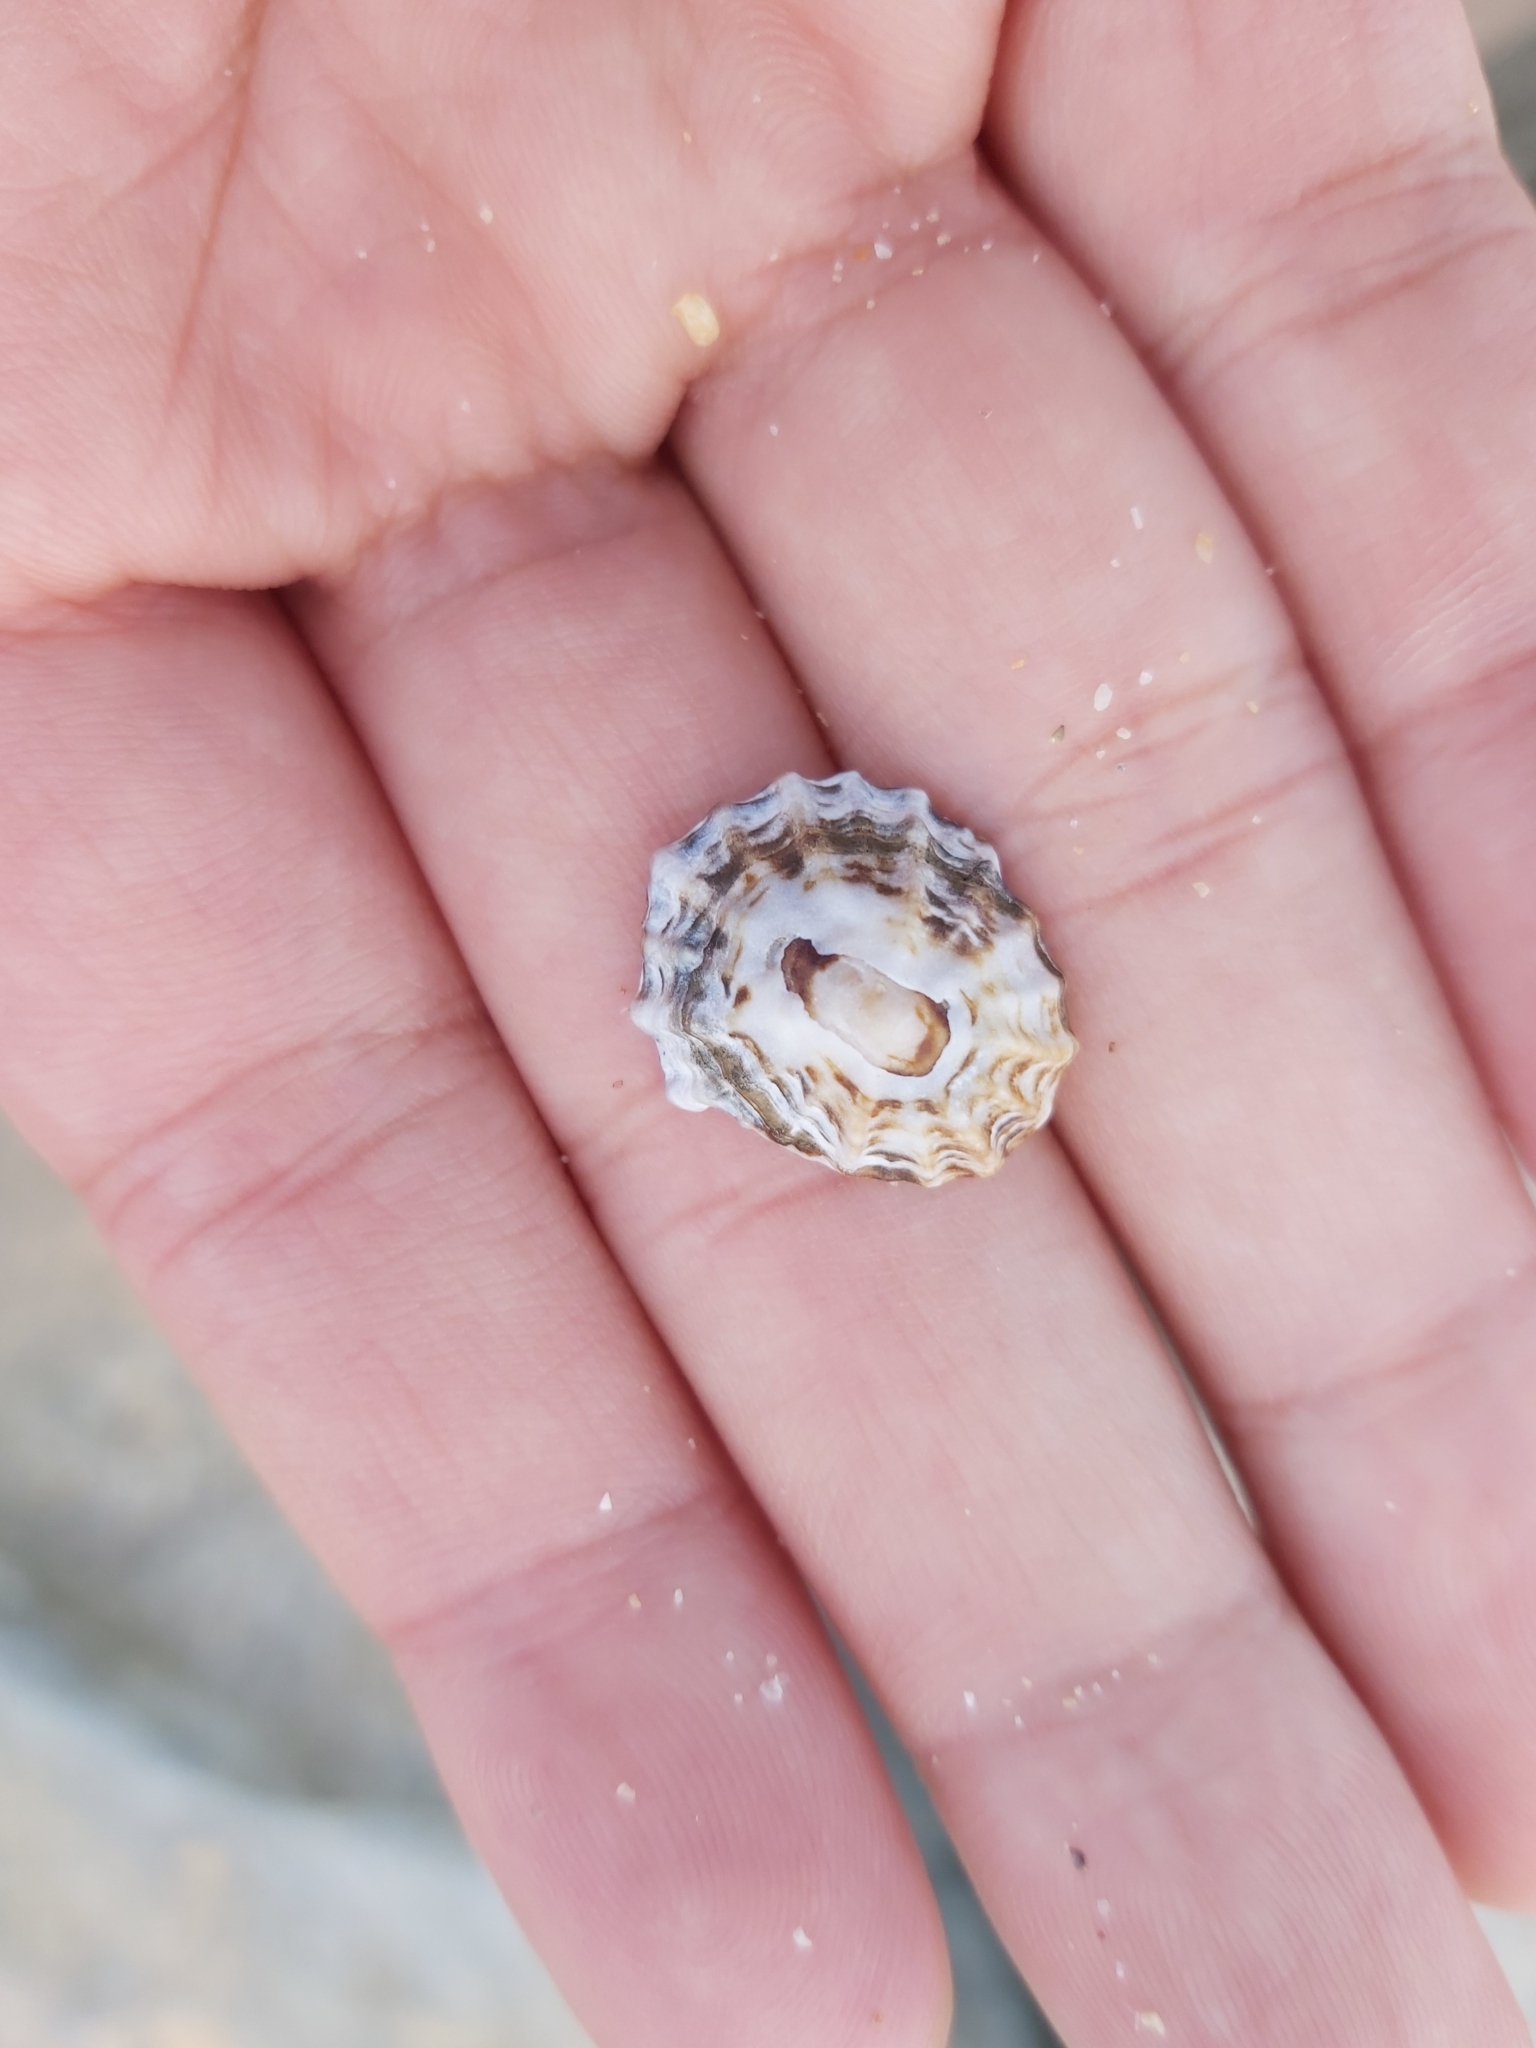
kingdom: Animalia
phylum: Mollusca
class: Gastropoda
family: Lottiidae
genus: Patelloida
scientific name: Patelloida alticostata
